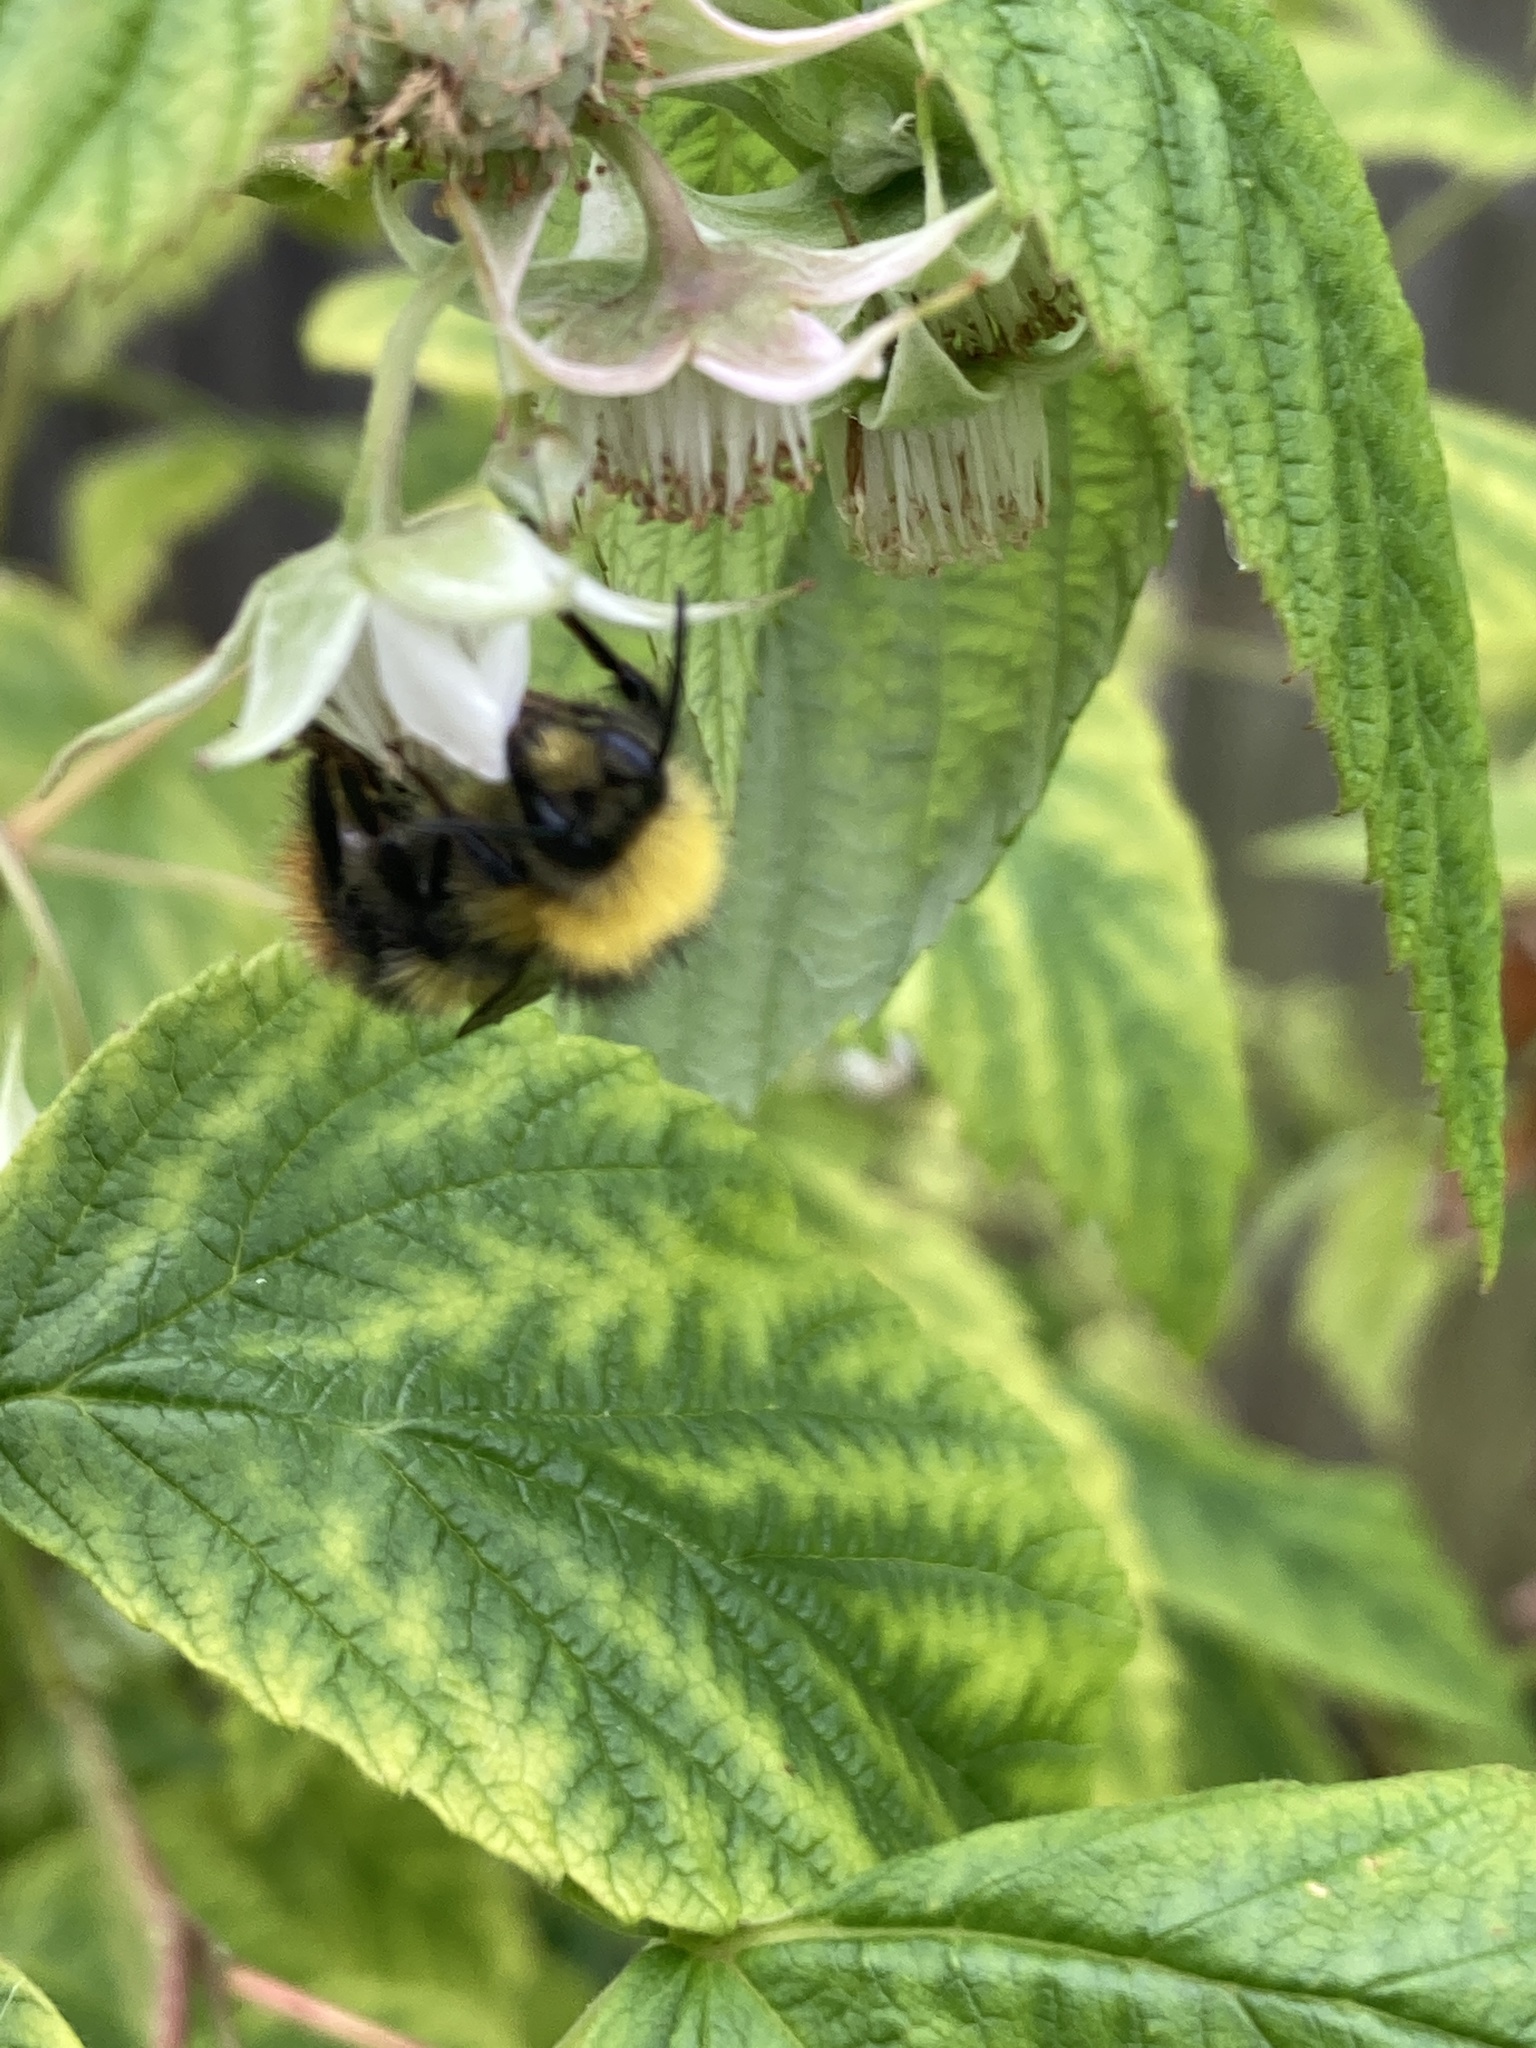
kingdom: Animalia
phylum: Arthropoda
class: Insecta
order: Hymenoptera
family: Apidae
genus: Bombus
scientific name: Bombus pratorum
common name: Early humble-bee
